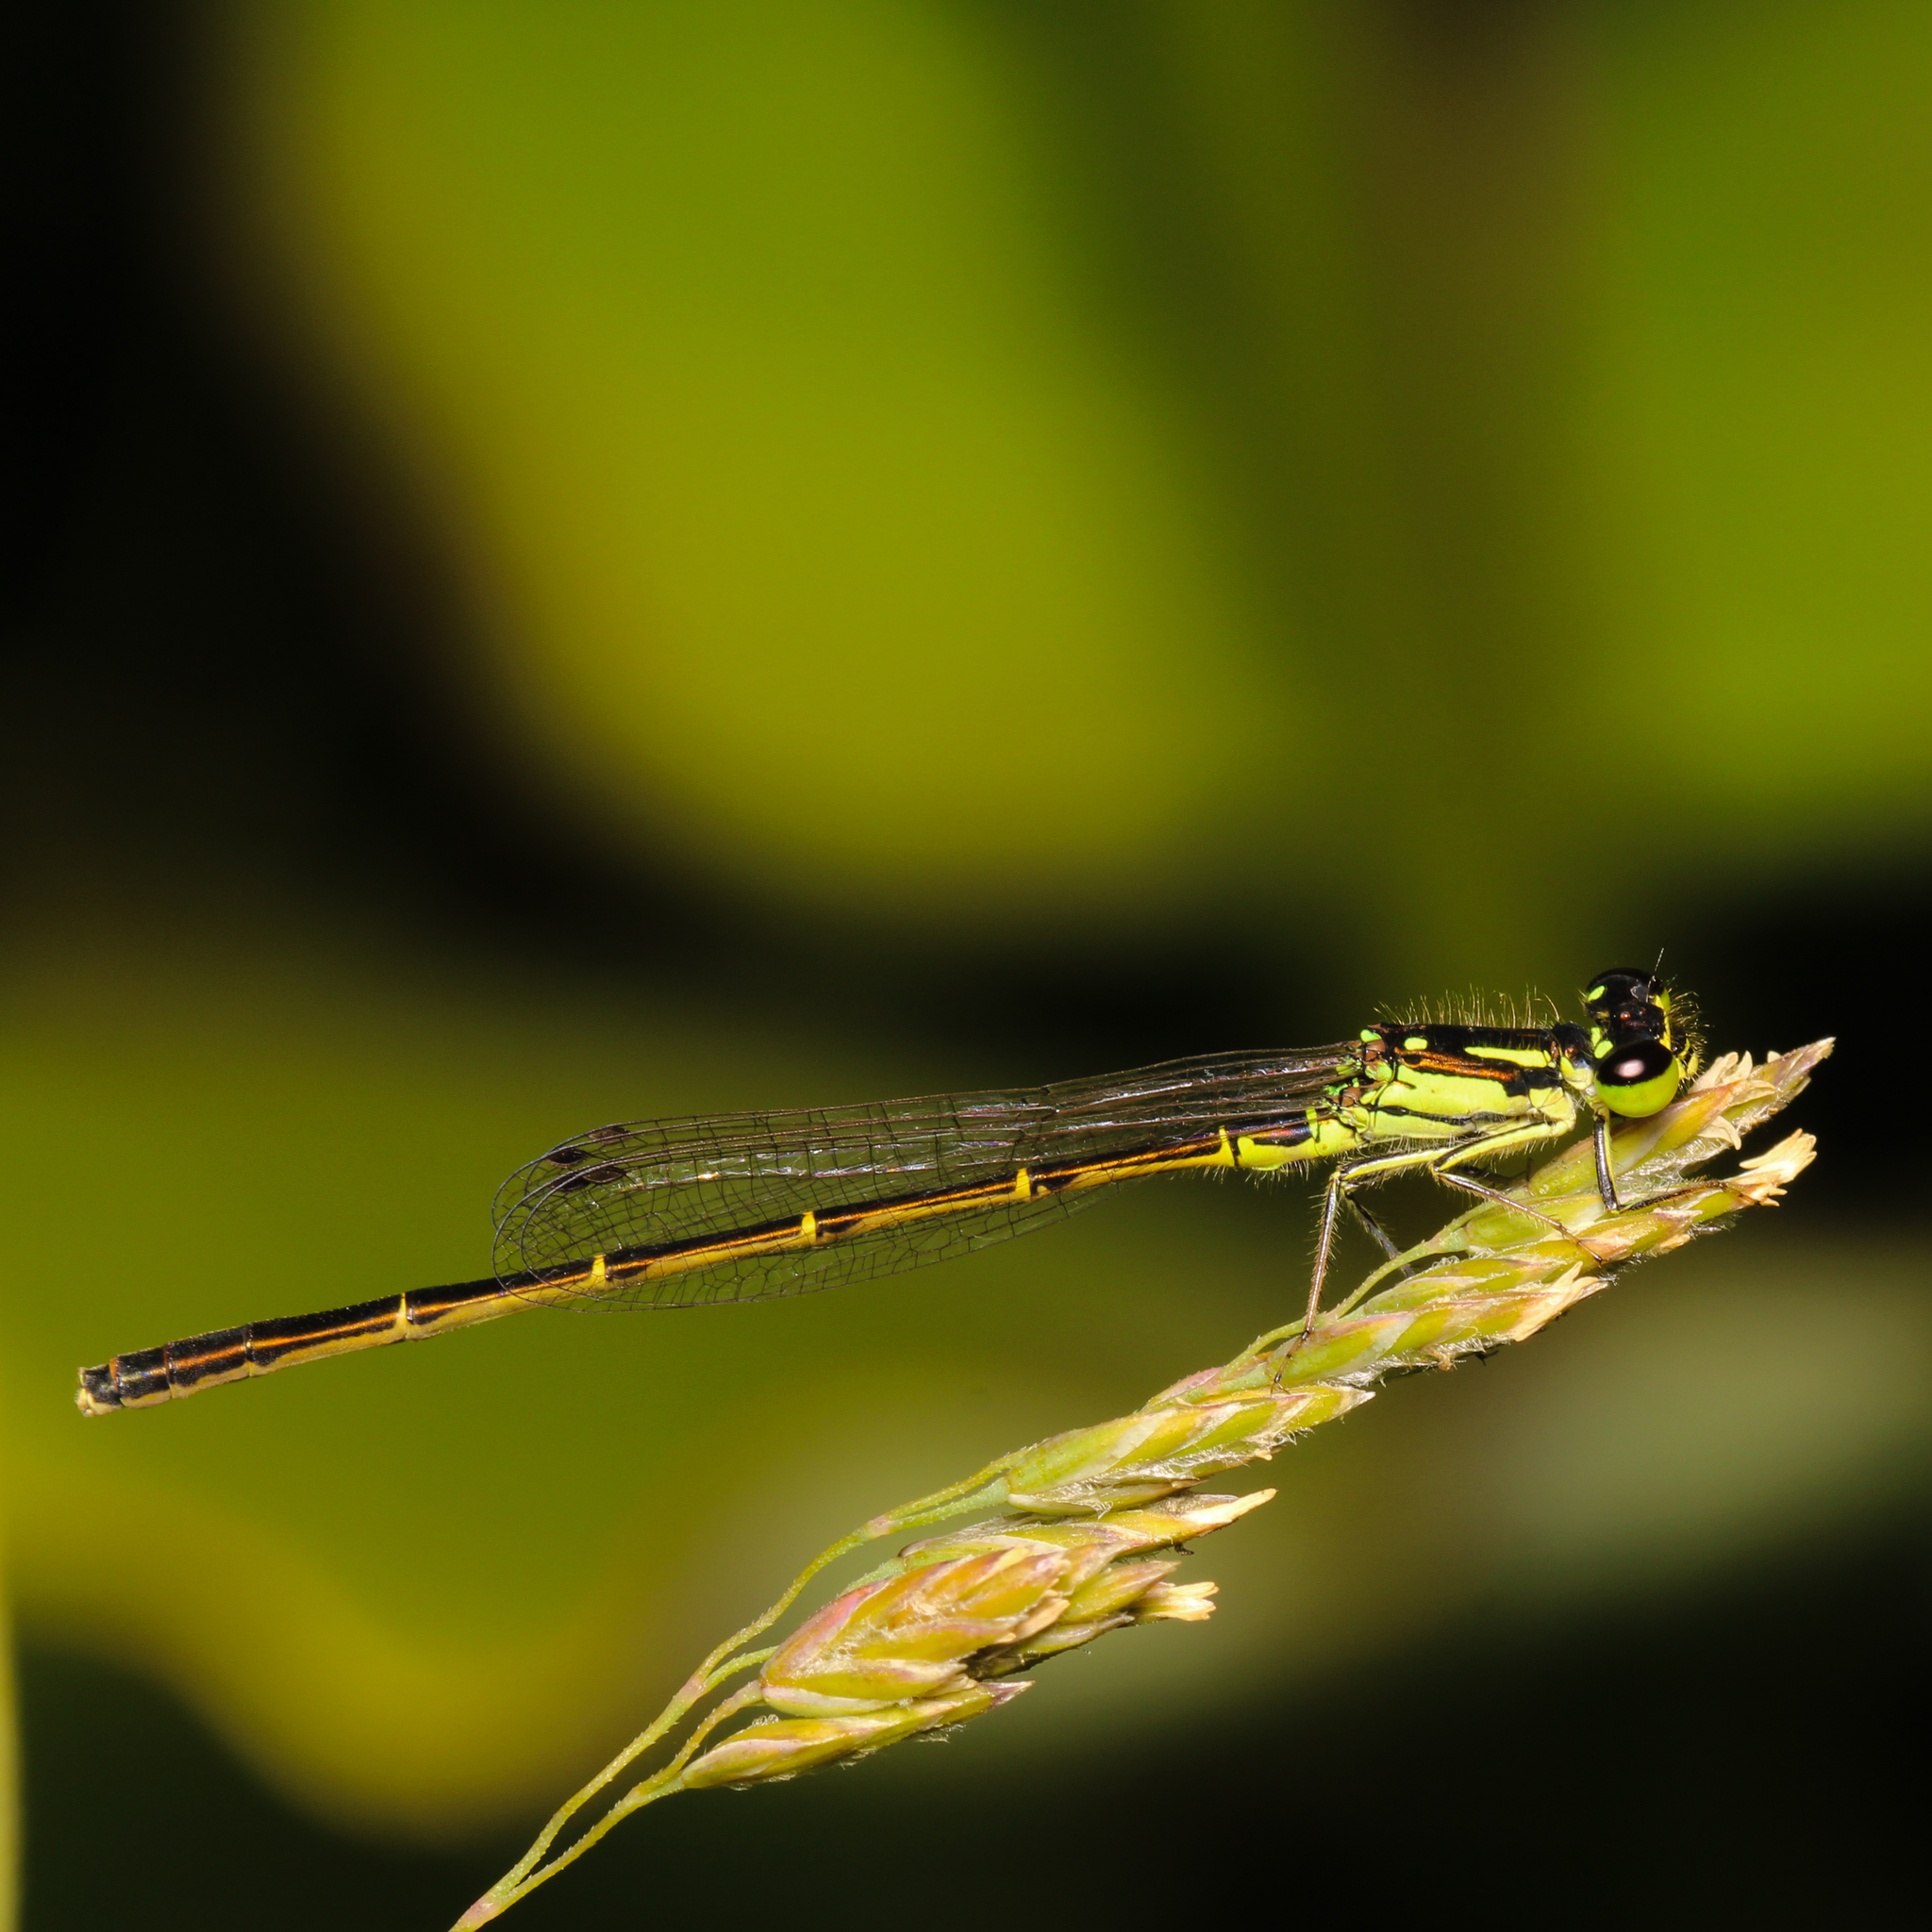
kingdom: Animalia
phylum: Arthropoda
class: Insecta
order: Odonata
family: Coenagrionidae
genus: Ischnura
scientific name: Ischnura posita
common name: Fragile forktail
